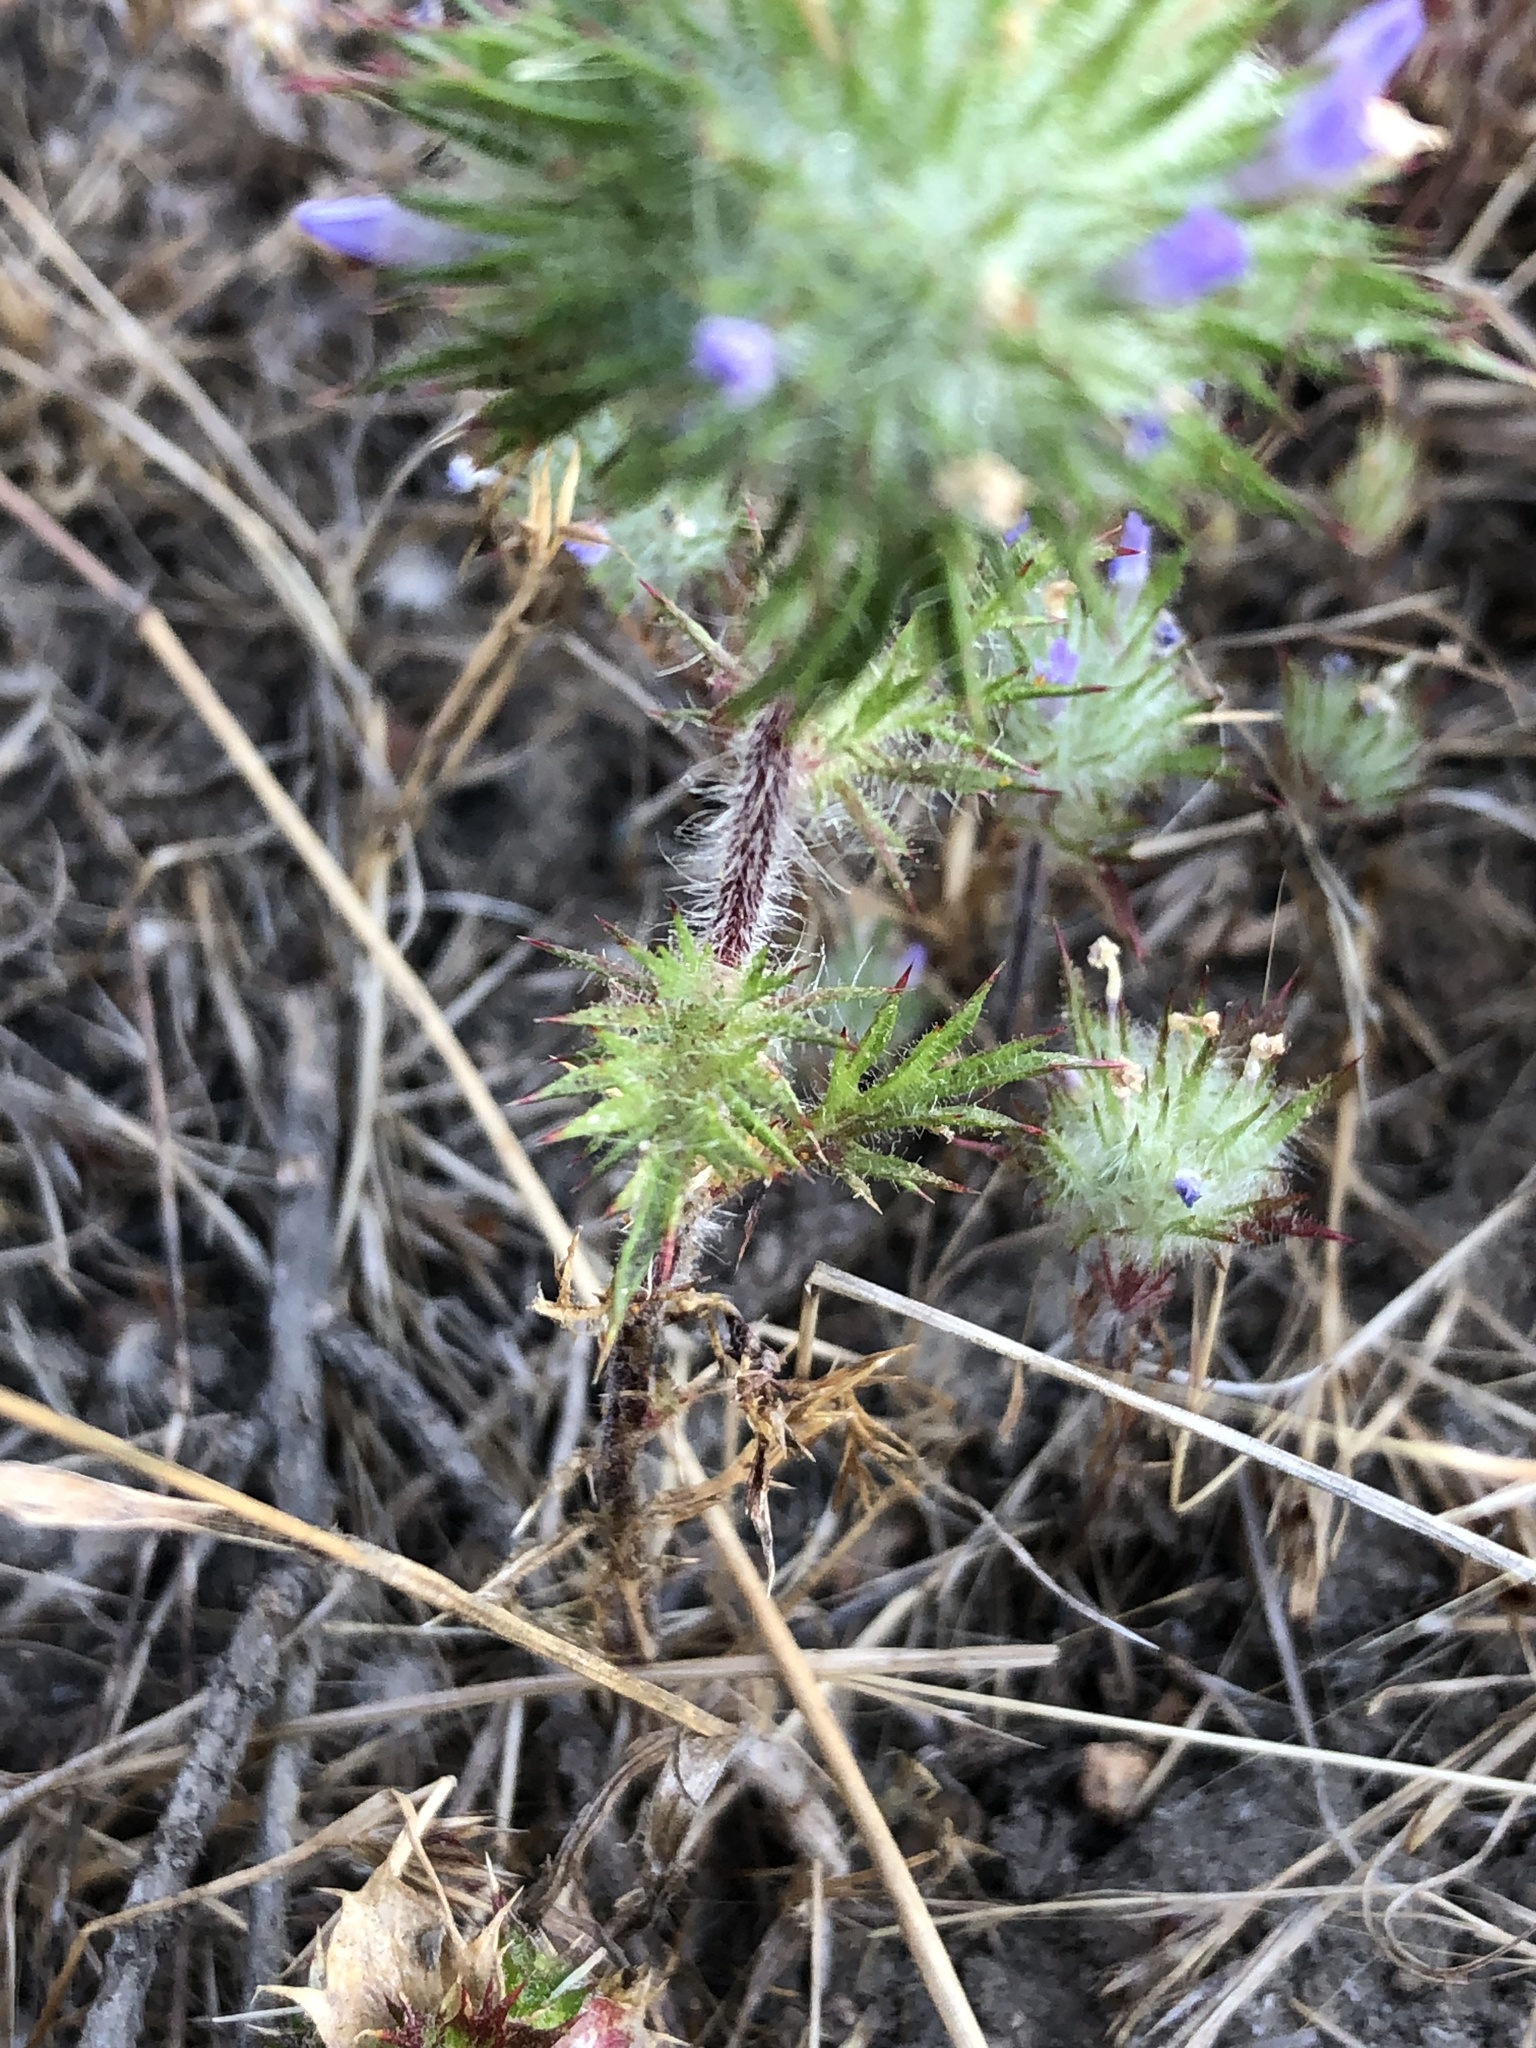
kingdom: Plantae
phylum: Tracheophyta
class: Magnoliopsida
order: Ericales
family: Polemoniaceae
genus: Navarretia
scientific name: Navarretia squarrosa
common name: Skunkweed
